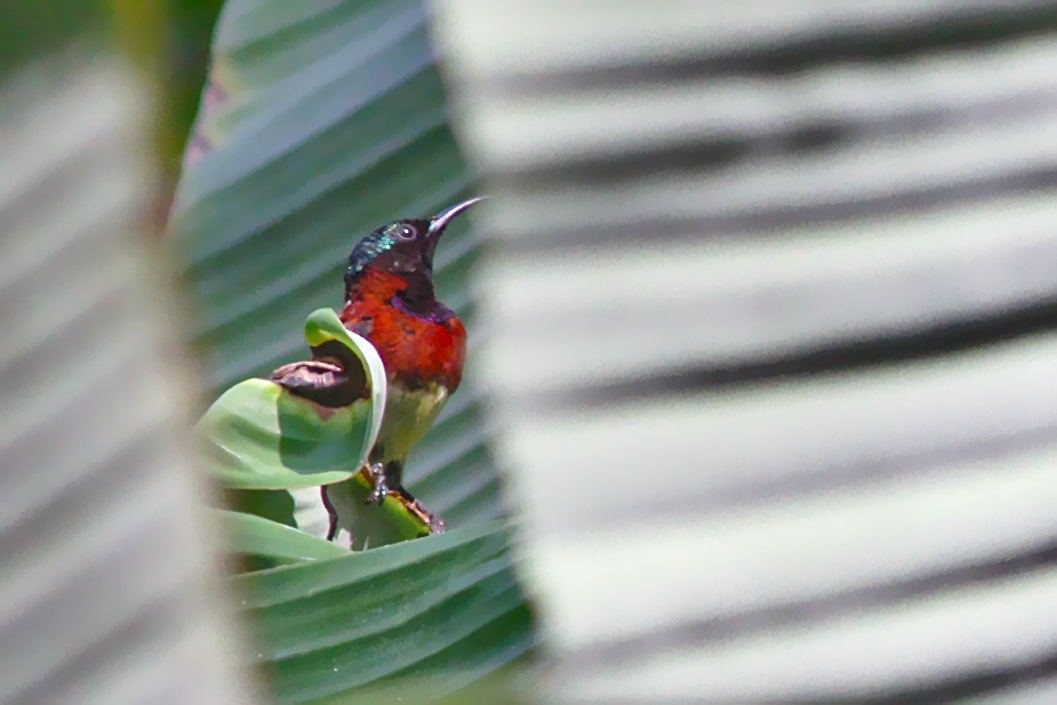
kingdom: Animalia
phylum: Chordata
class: Aves
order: Passeriformes
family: Nectariniidae
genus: Leptocoma
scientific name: Leptocoma minima
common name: Crimson-backed sunbird
